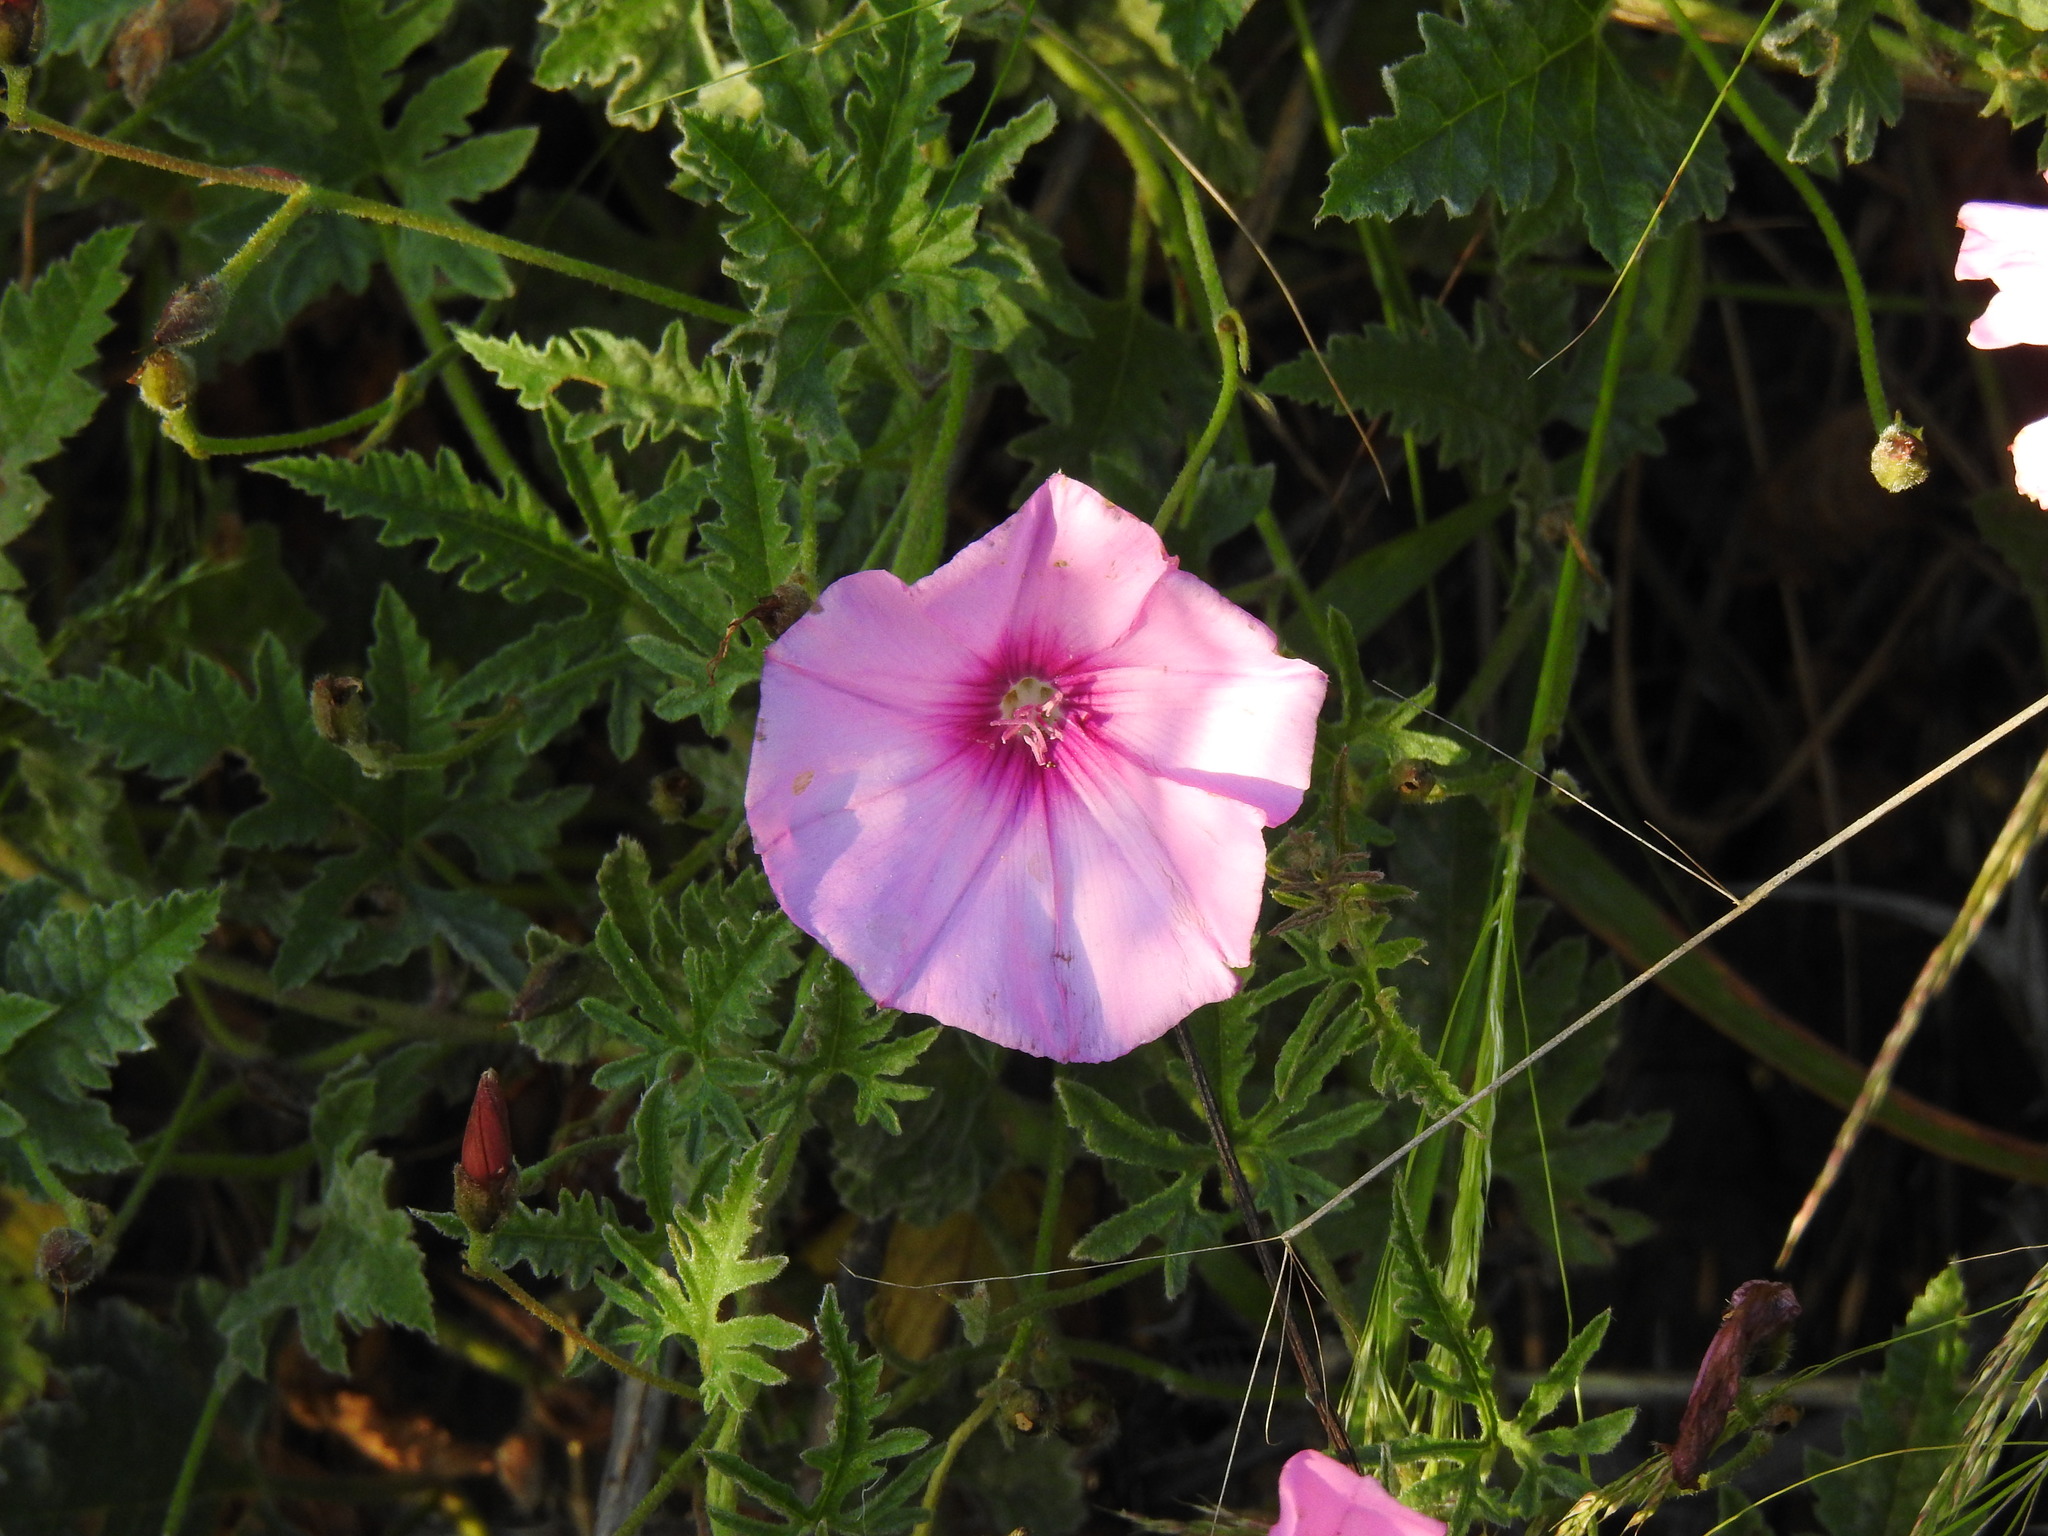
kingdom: Plantae
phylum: Tracheophyta
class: Magnoliopsida
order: Solanales
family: Convolvulaceae
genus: Convolvulus
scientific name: Convolvulus althaeoides
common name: Mallow bindweed
